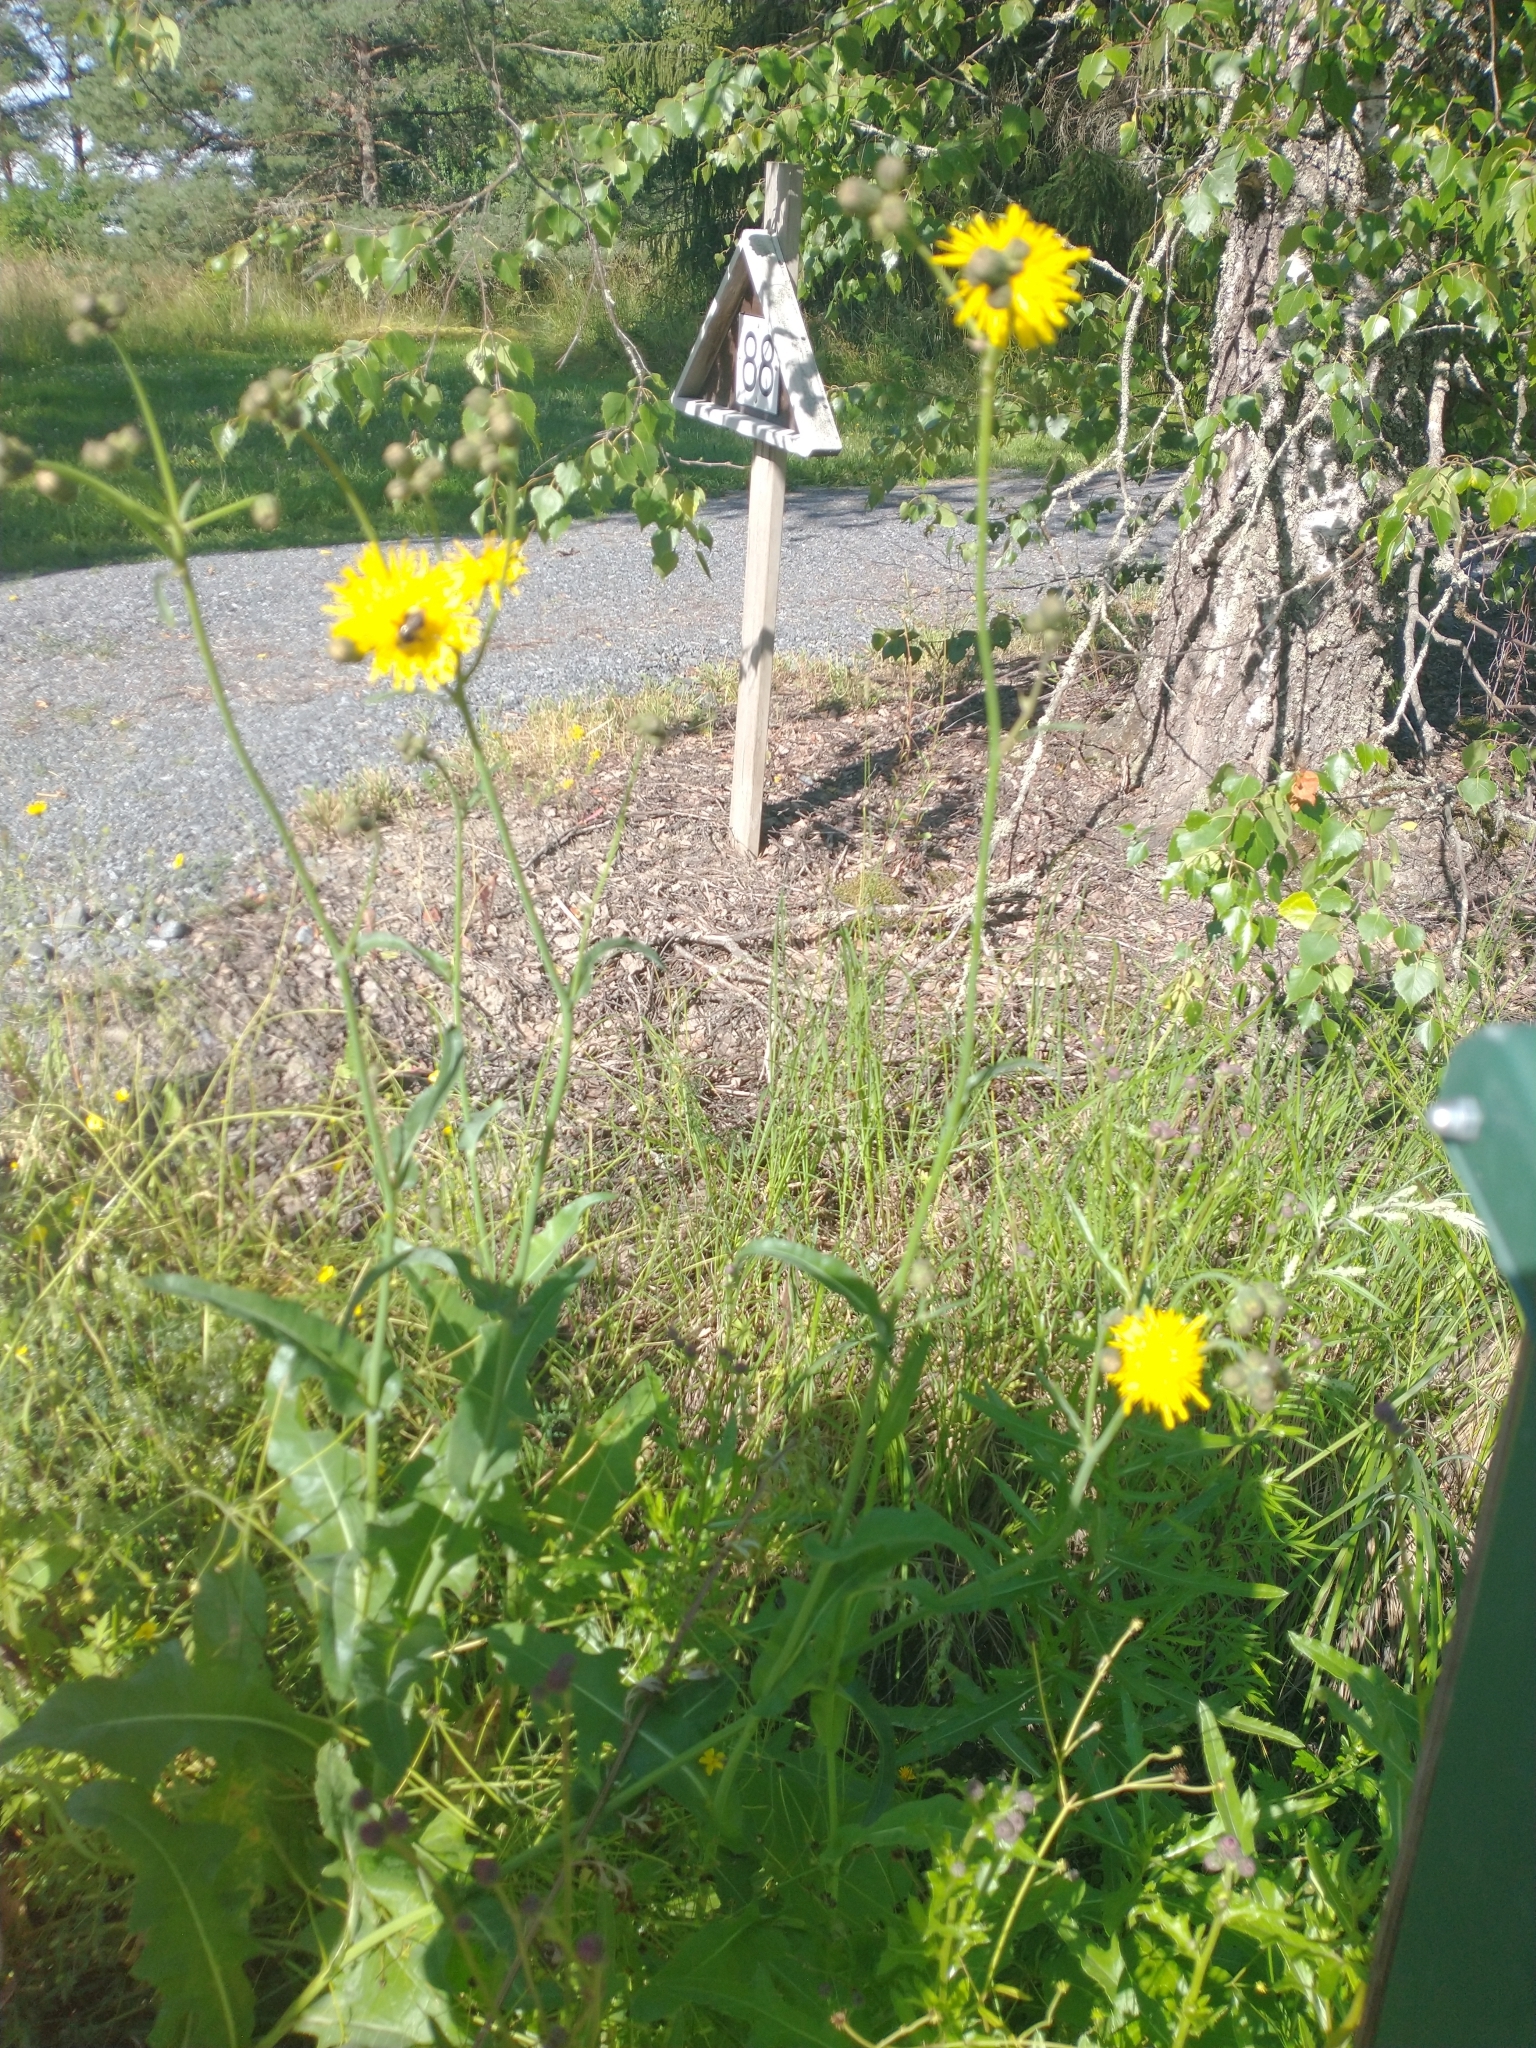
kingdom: Plantae
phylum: Tracheophyta
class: Magnoliopsida
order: Asterales
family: Asteraceae
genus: Sonchus
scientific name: Sonchus arvensis
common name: Perennial sow-thistle
